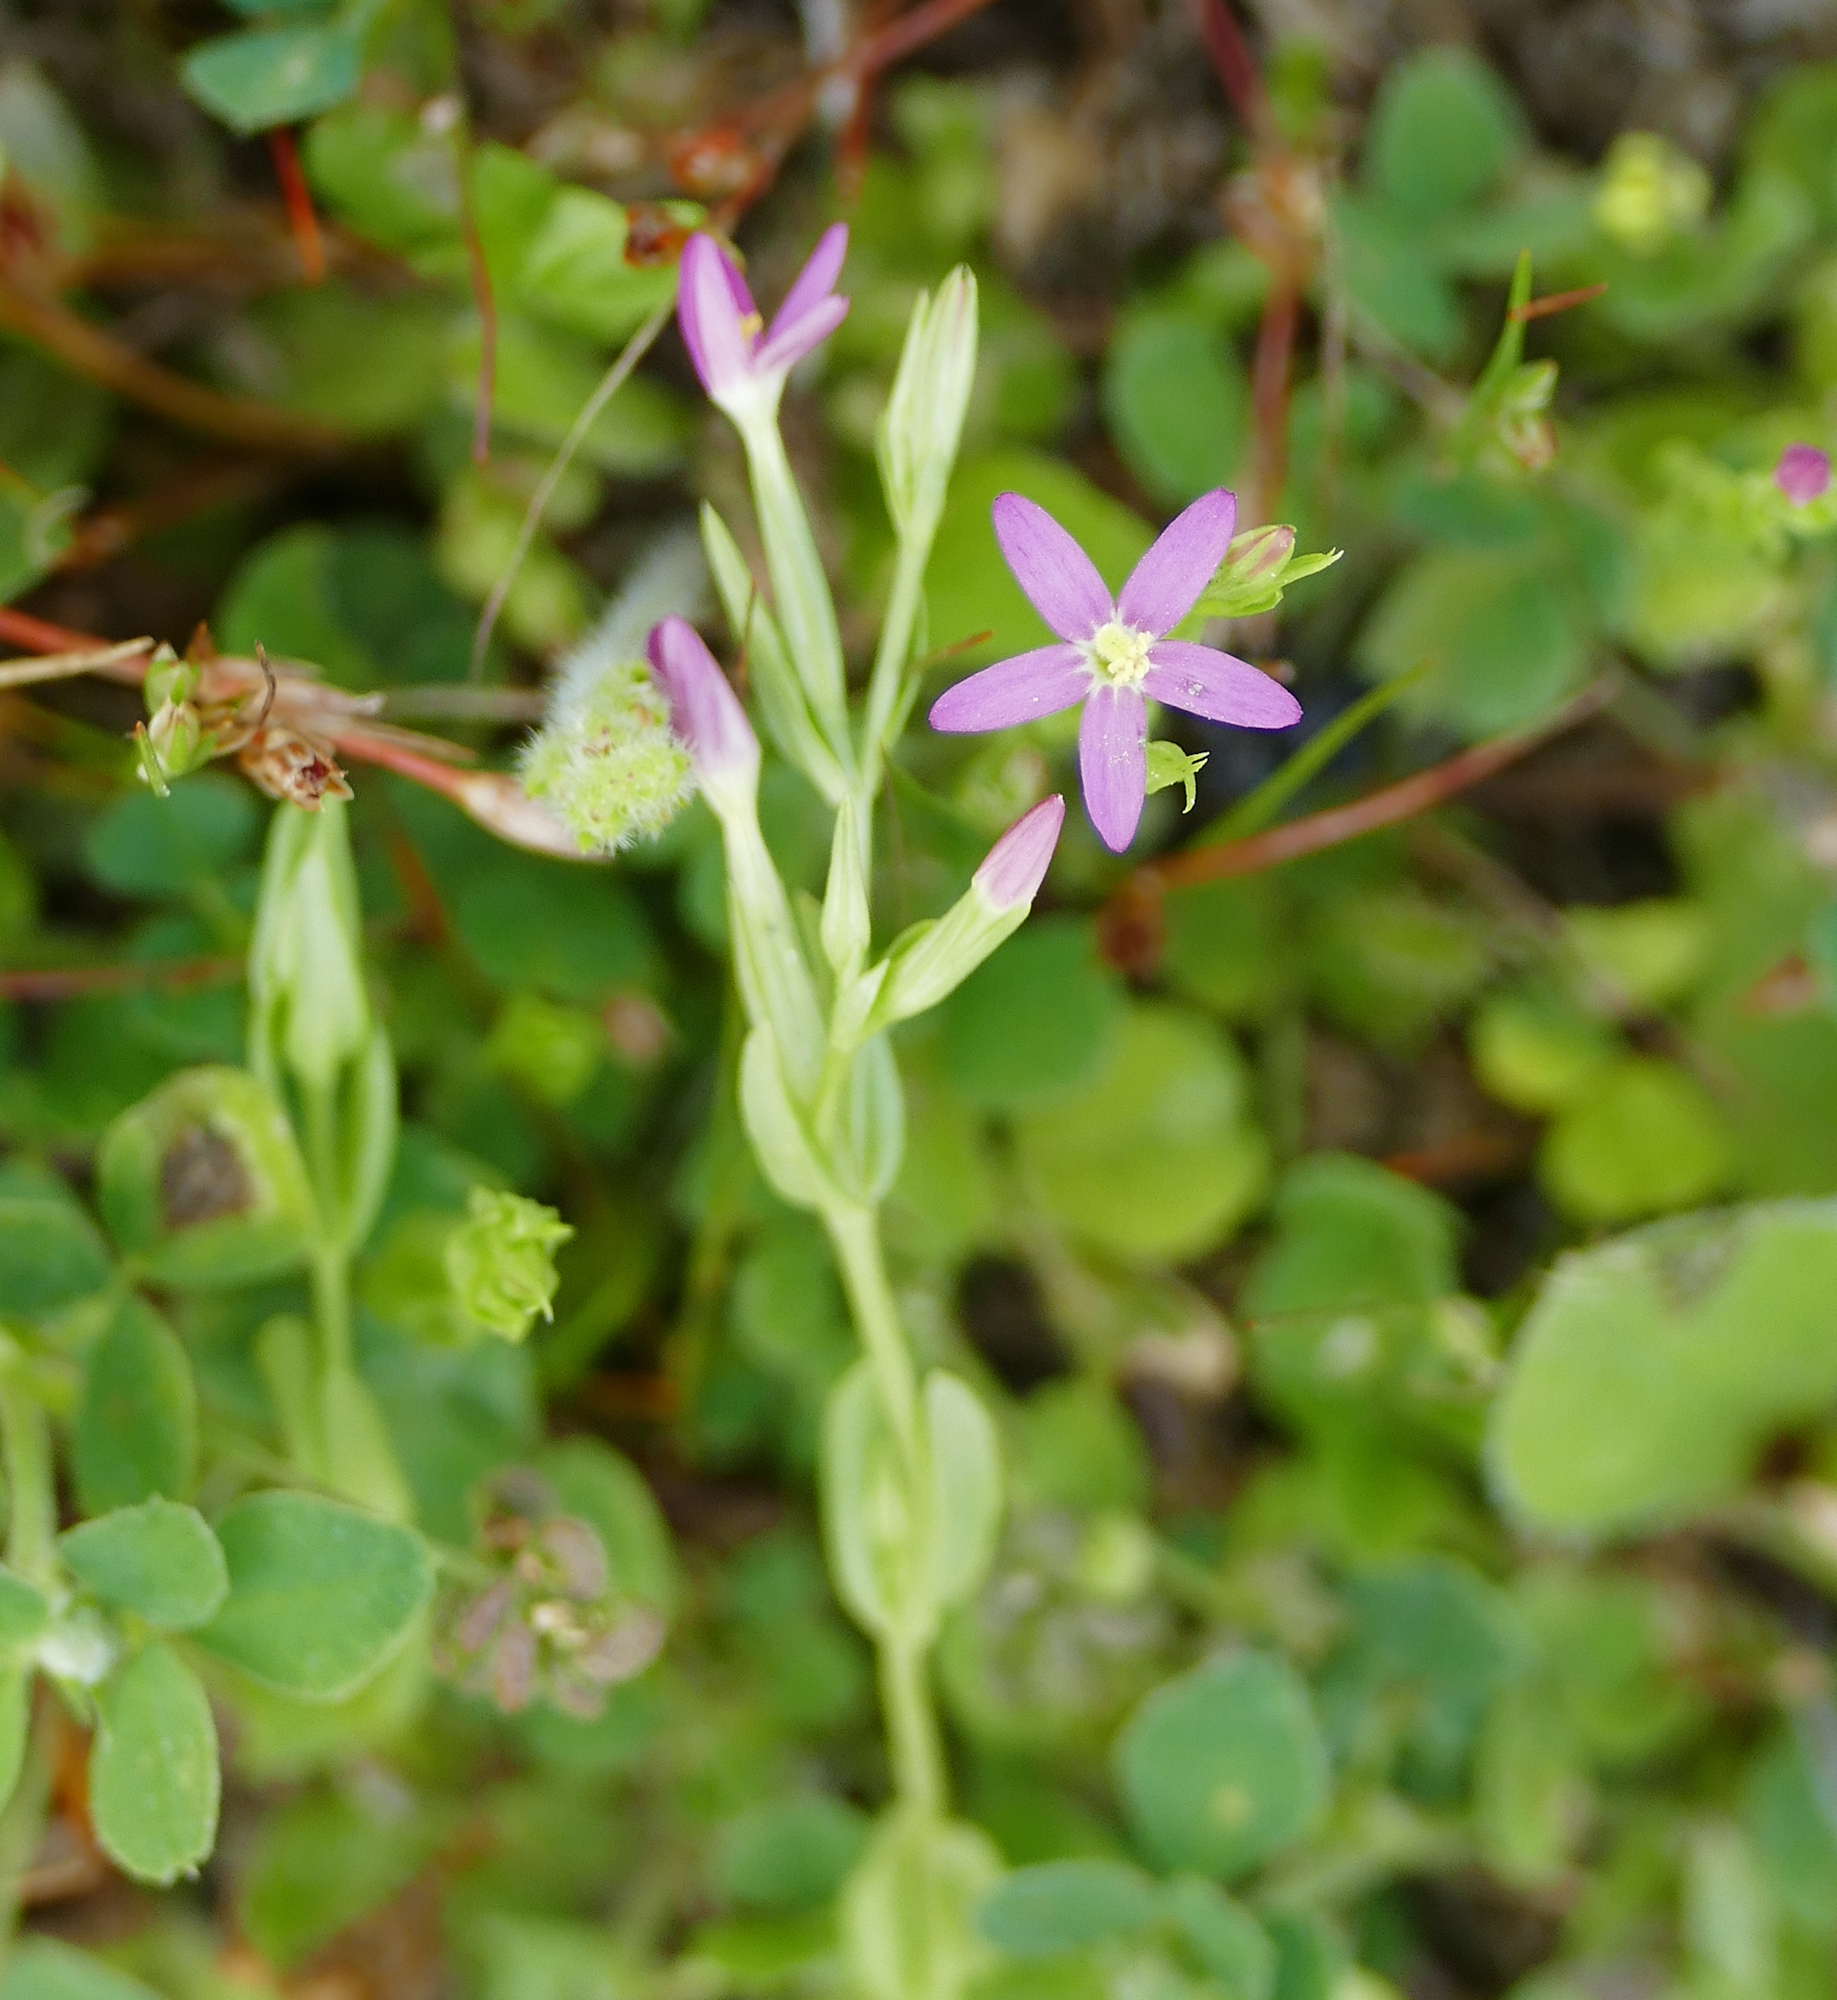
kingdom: Plantae
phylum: Tracheophyta
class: Magnoliopsida
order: Gentianales
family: Gentianaceae
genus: Centaurium
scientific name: Centaurium pulchellum
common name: Lesser centaury
